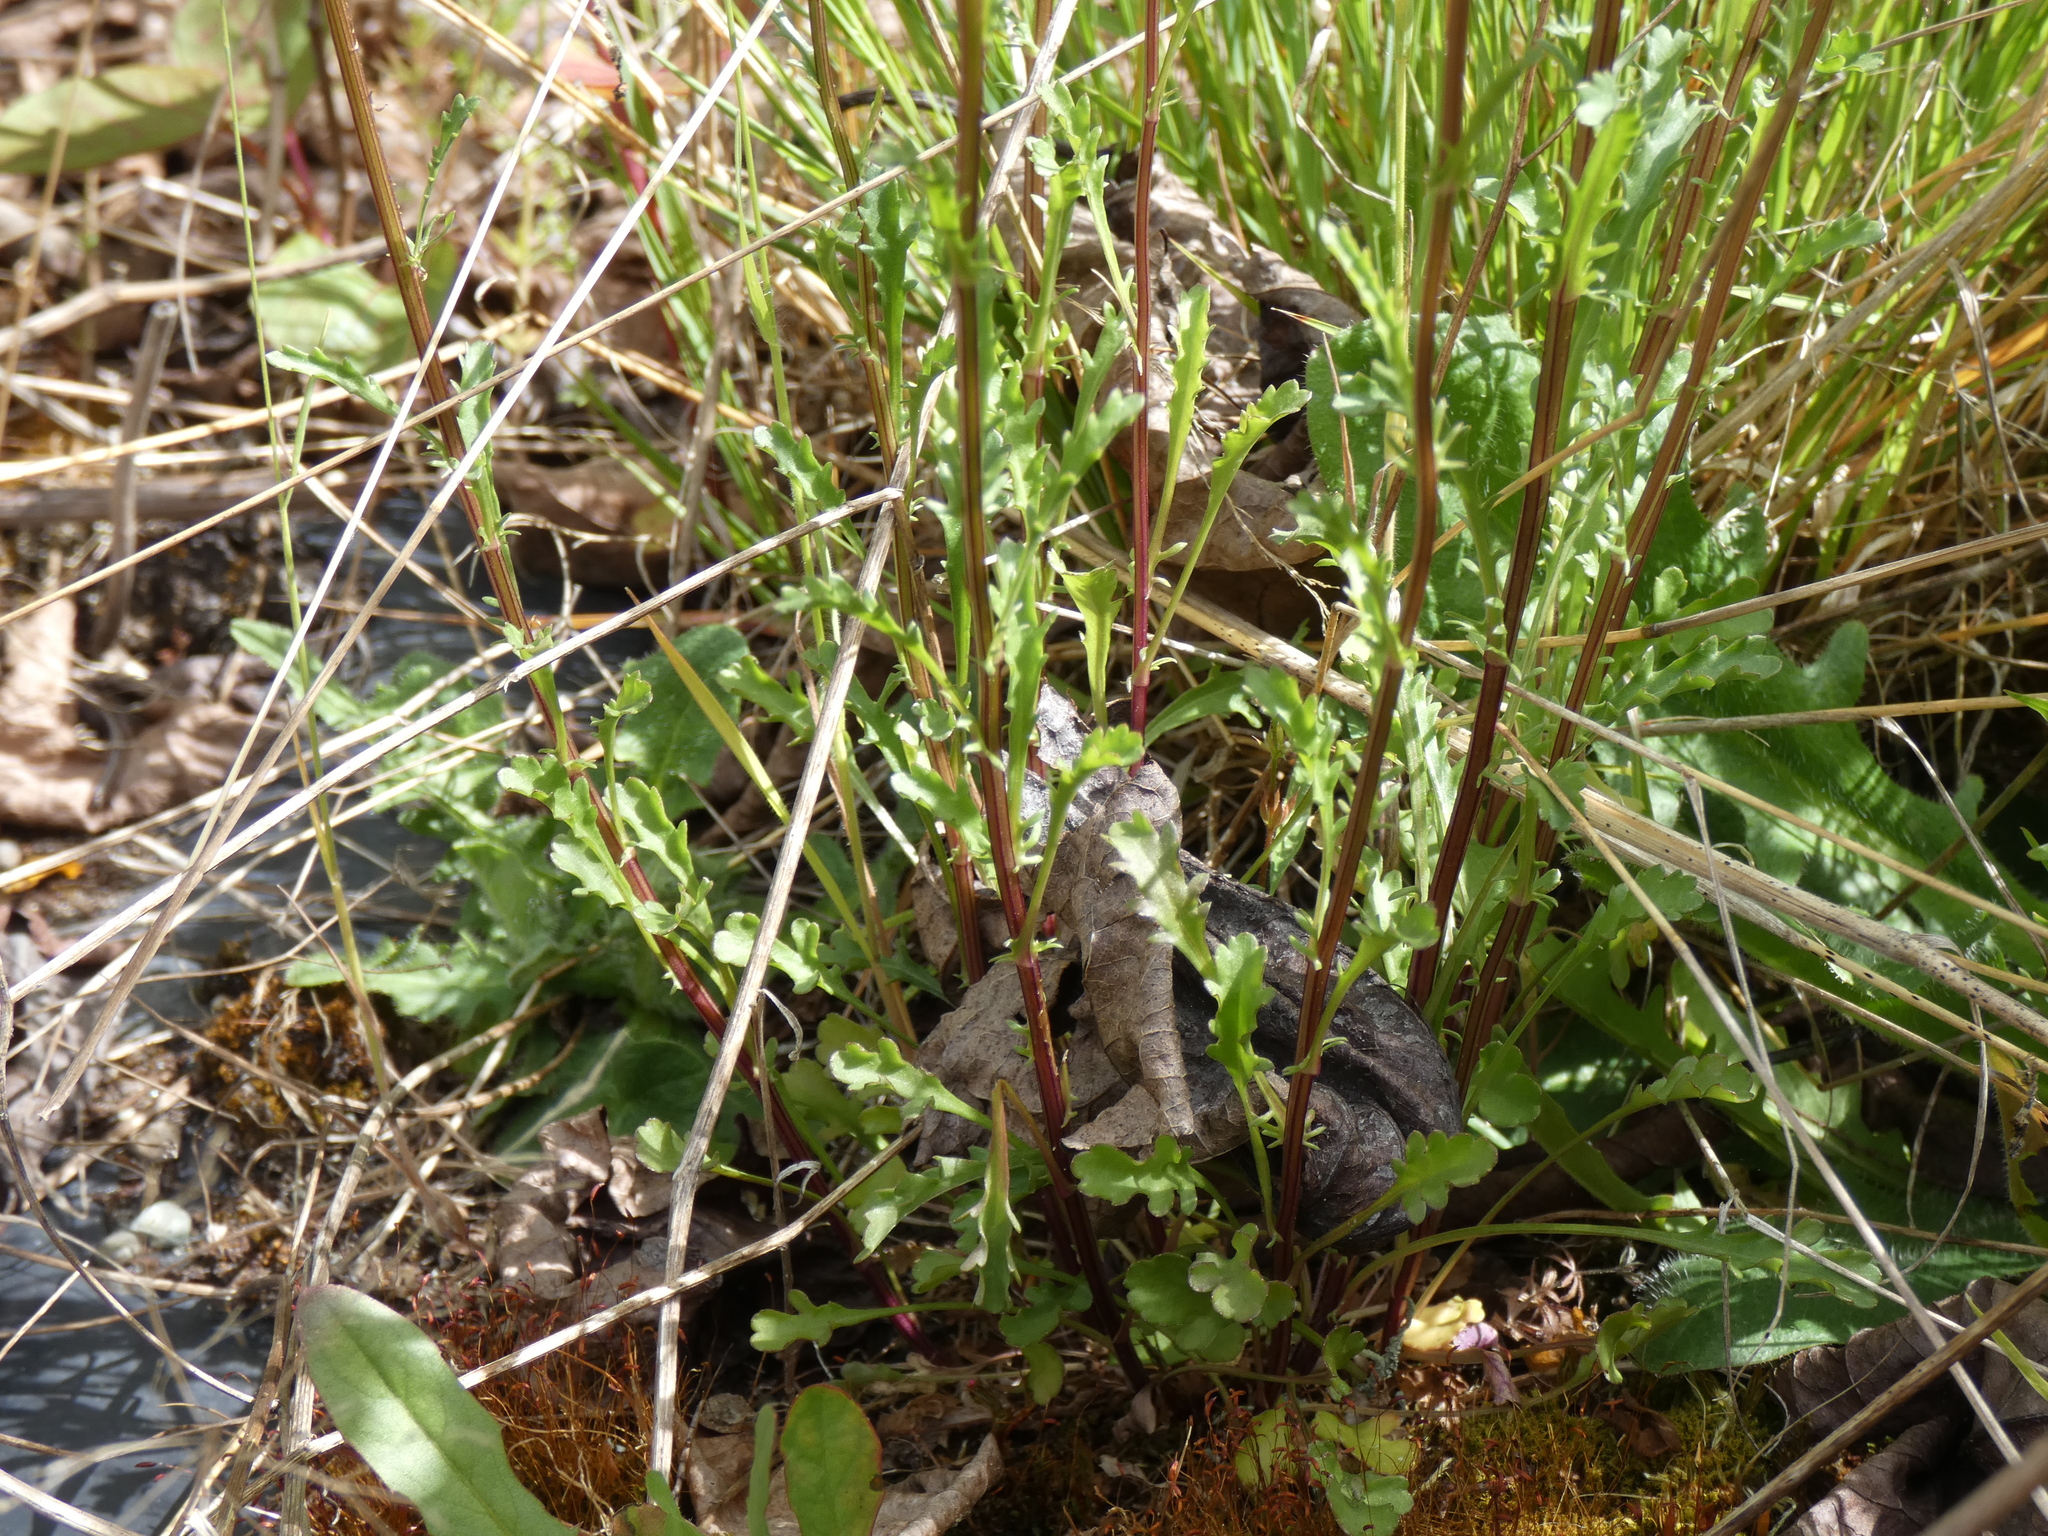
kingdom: Plantae
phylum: Tracheophyta
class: Magnoliopsida
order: Asterales
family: Asteraceae
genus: Leucanthemum
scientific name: Leucanthemum vulgare
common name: Oxeye daisy
